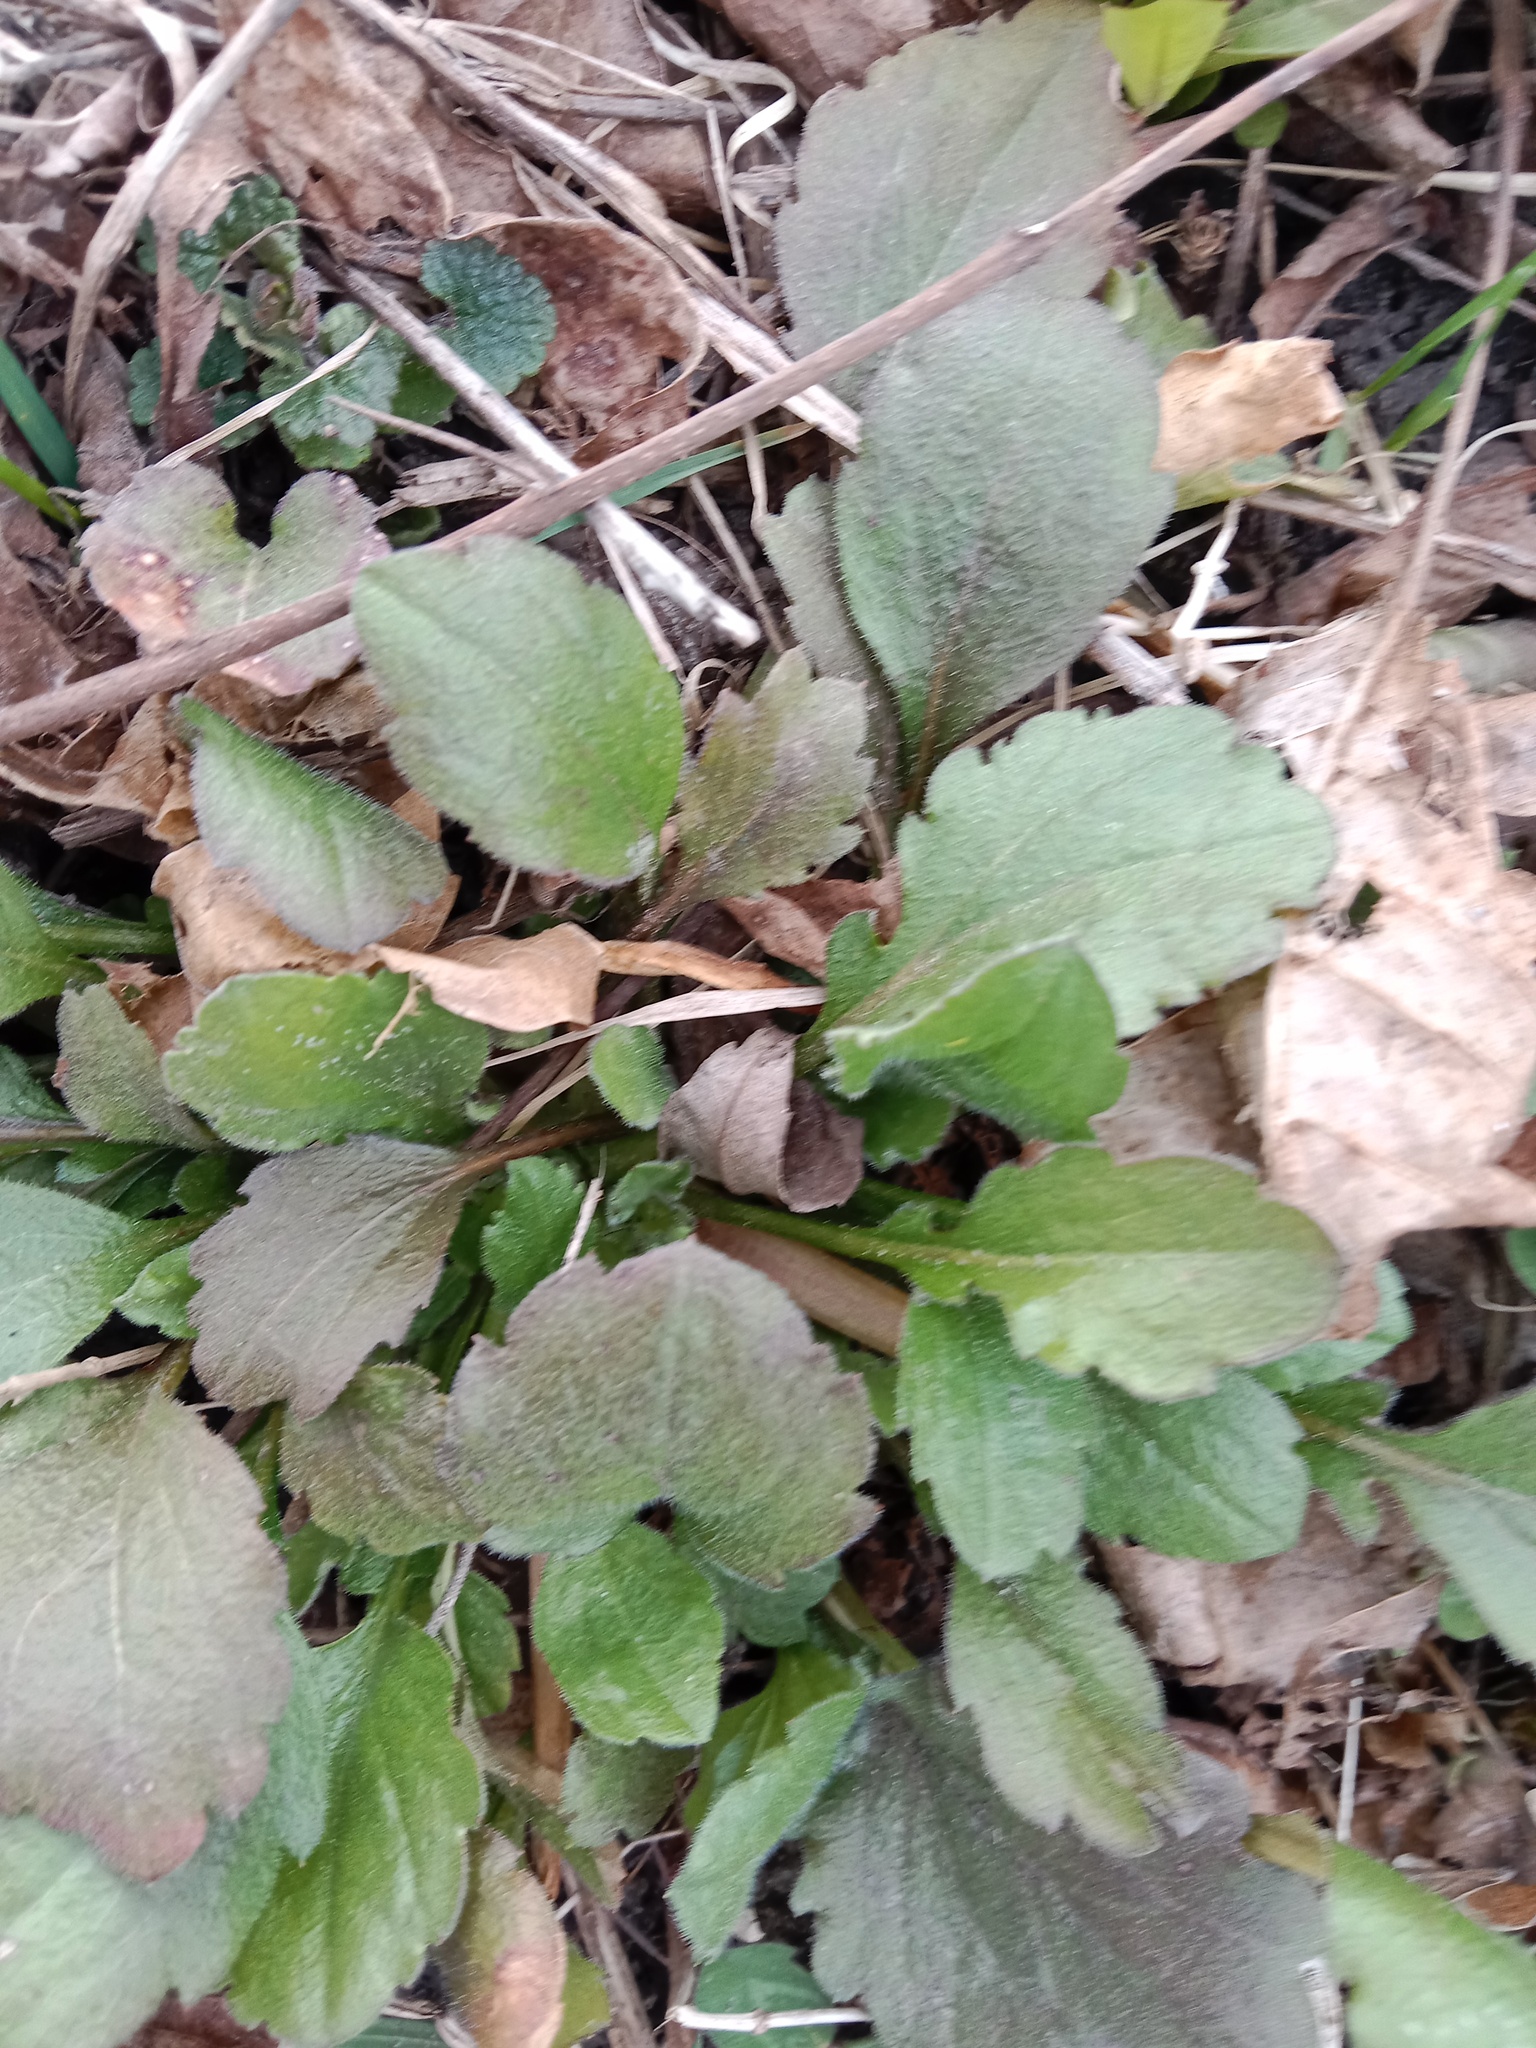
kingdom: Plantae
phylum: Tracheophyta
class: Magnoliopsida
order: Asterales
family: Asteraceae
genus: Erigeron
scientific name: Erigeron annuus
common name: Tall fleabane
